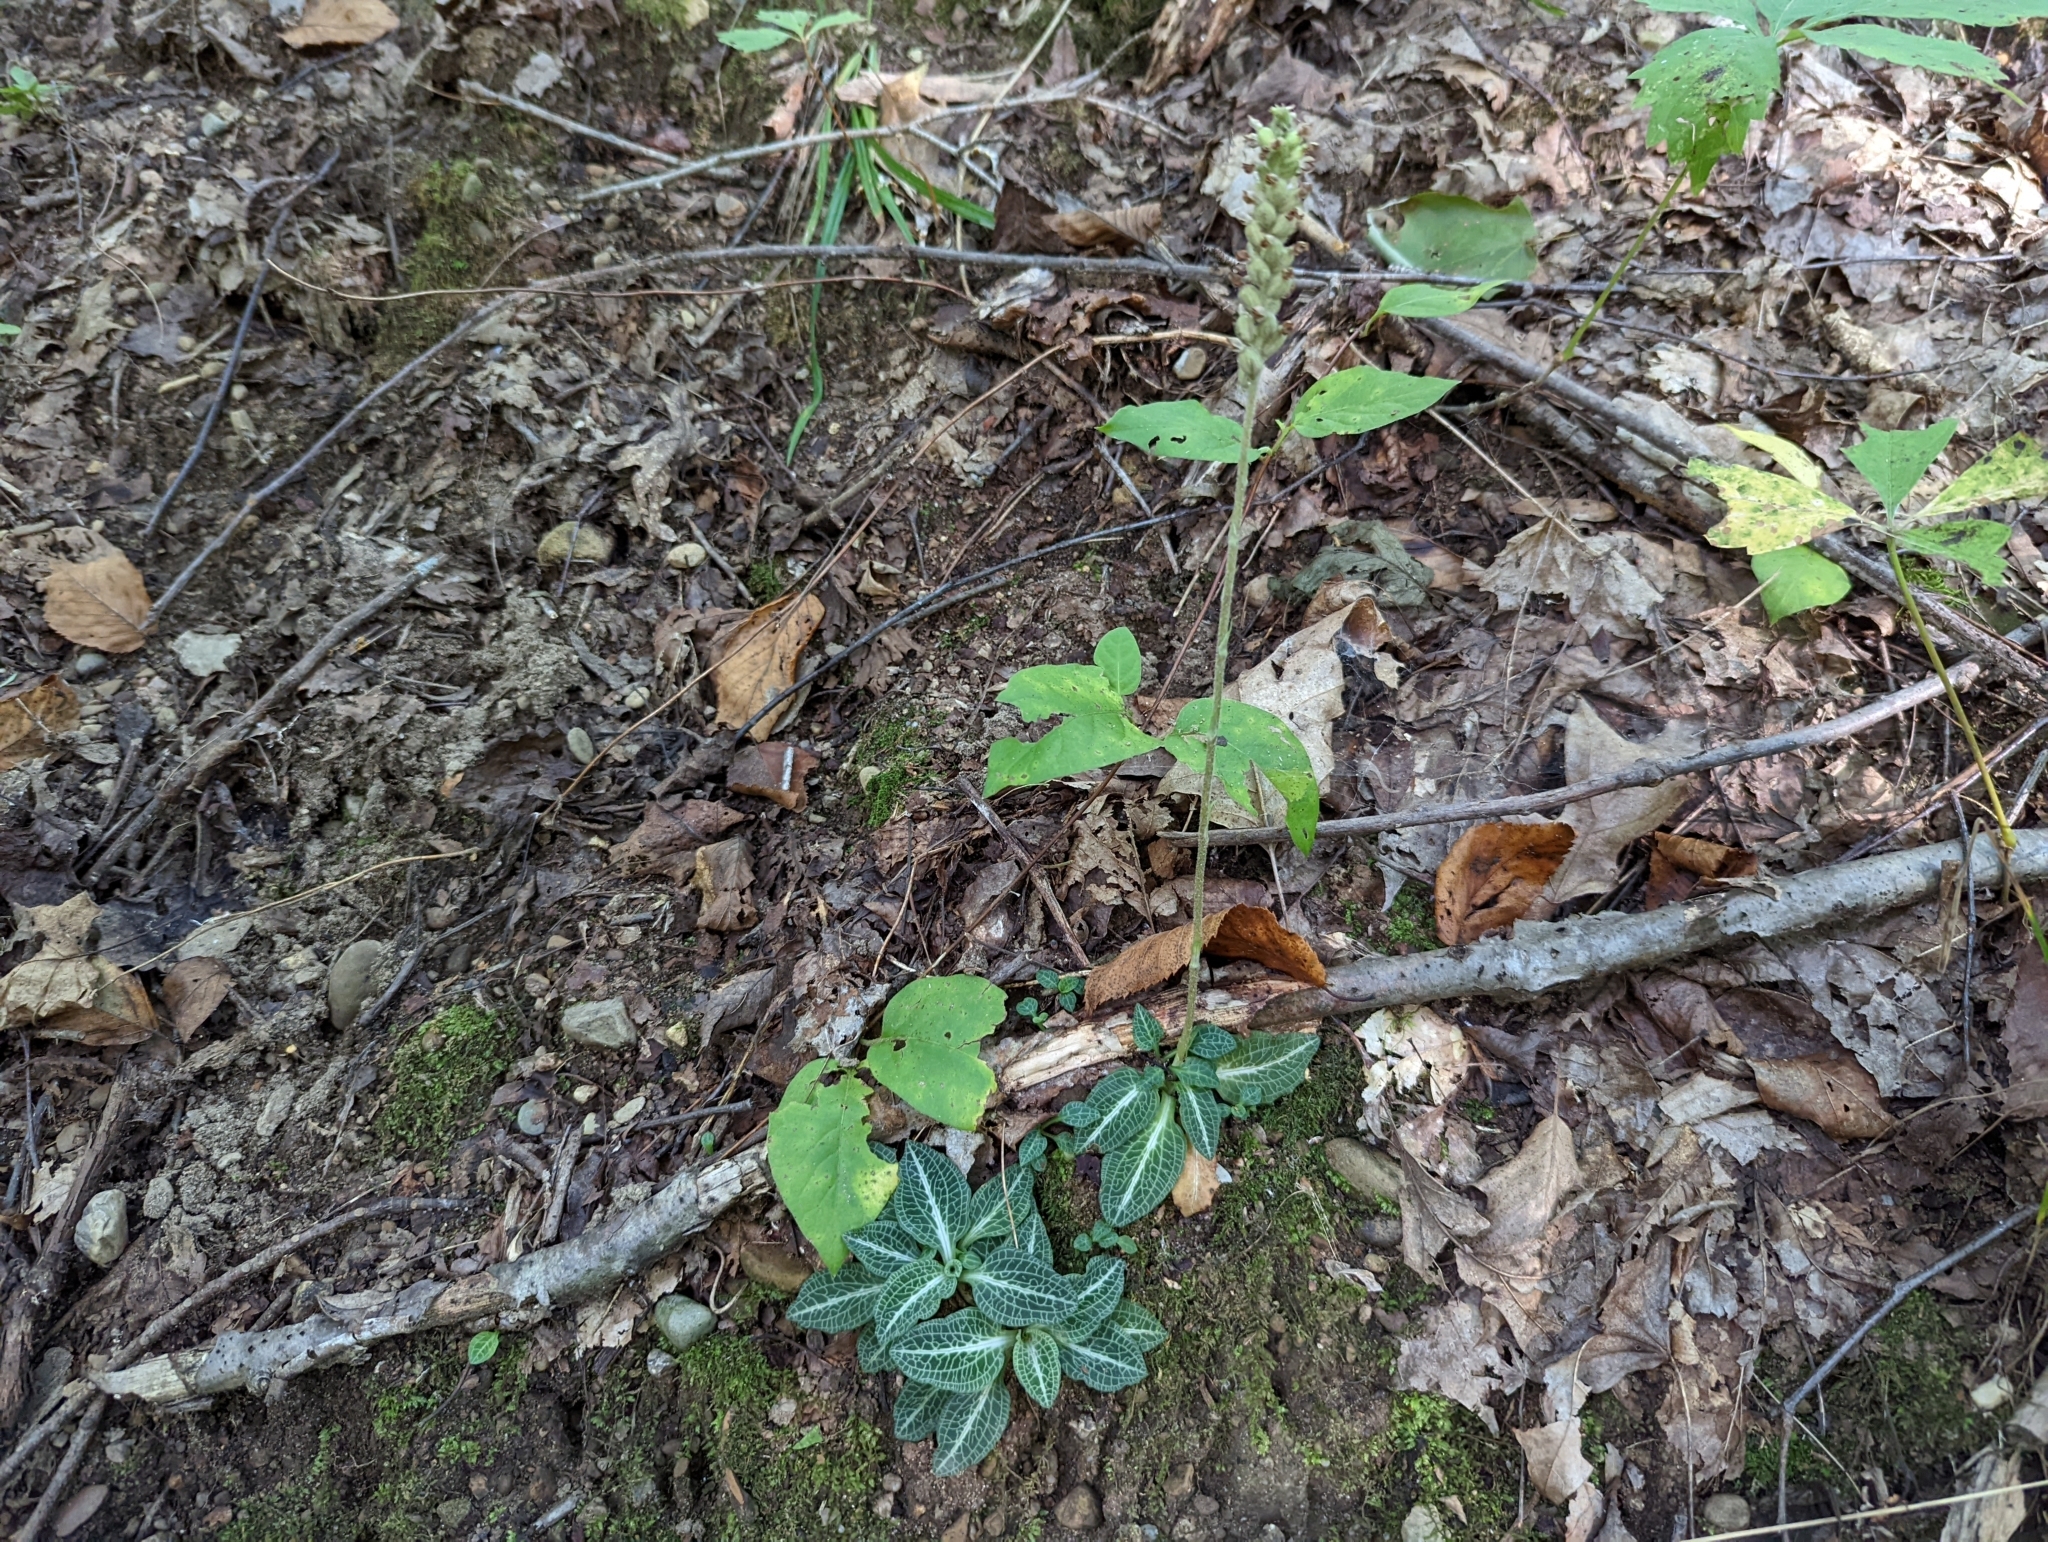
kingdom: Plantae
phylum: Tracheophyta
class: Liliopsida
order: Asparagales
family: Orchidaceae
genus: Goodyera
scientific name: Goodyera pubescens
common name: Downy rattlesnake-plantain
